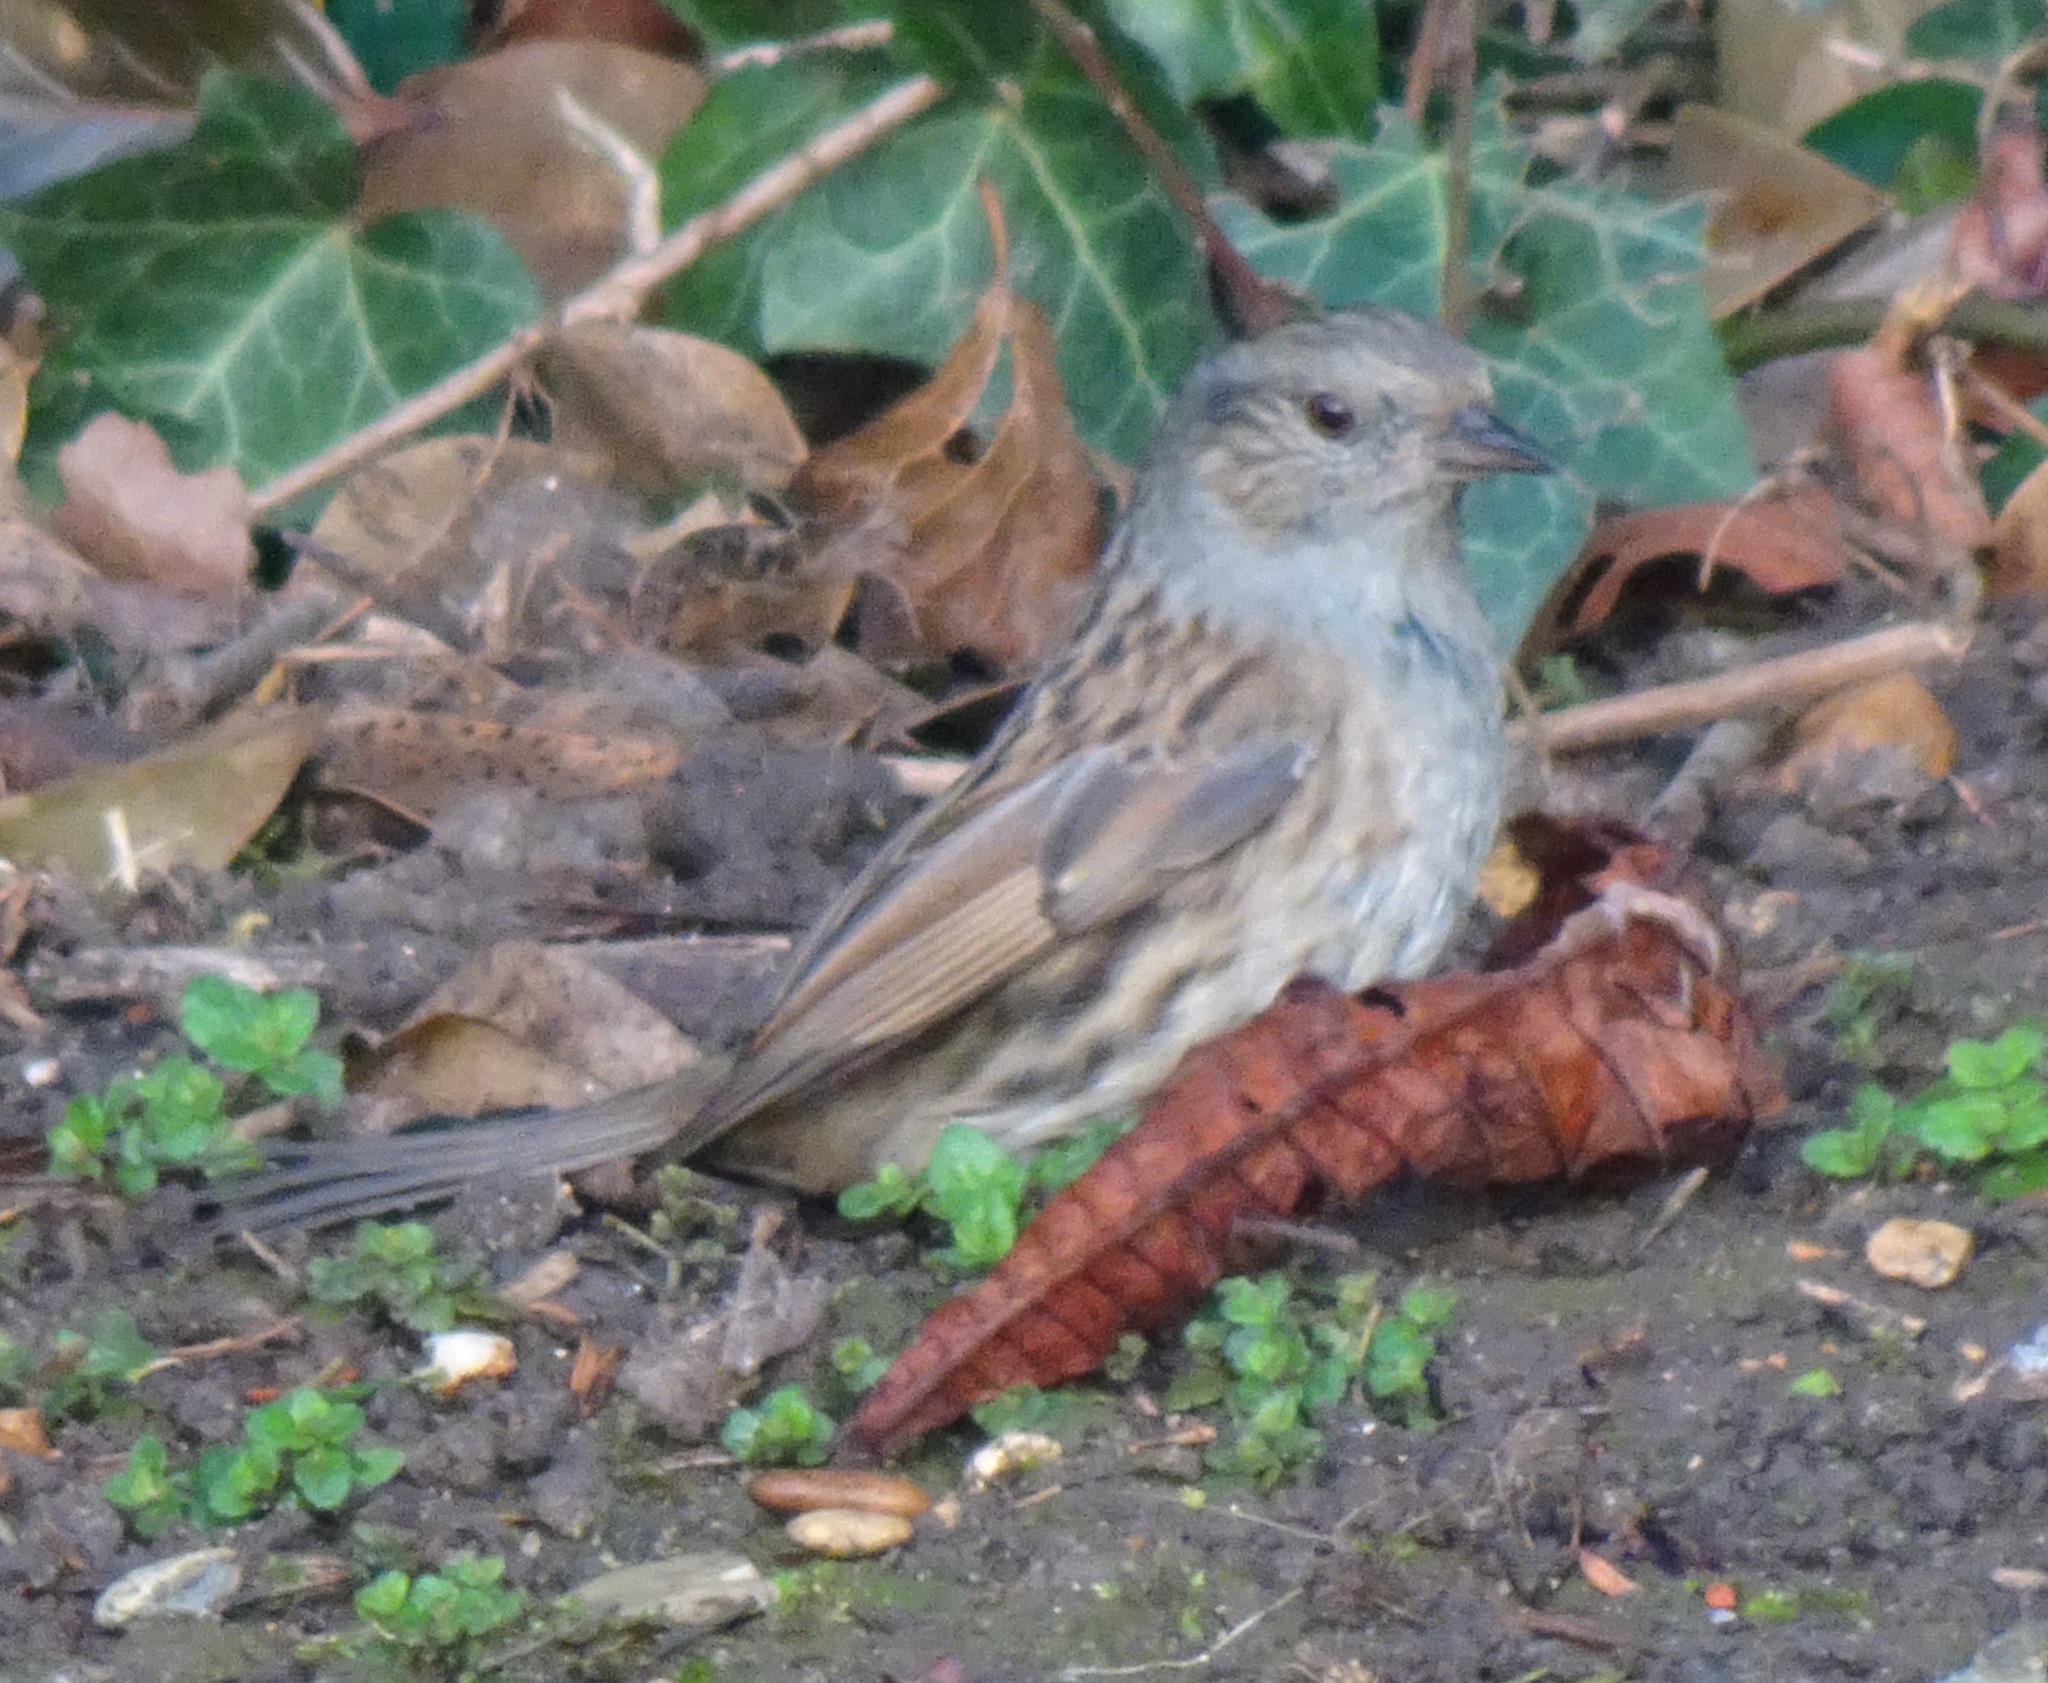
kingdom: Animalia
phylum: Chordata
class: Aves
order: Passeriformes
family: Prunellidae
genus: Prunella
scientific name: Prunella modularis
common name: Dunnock
